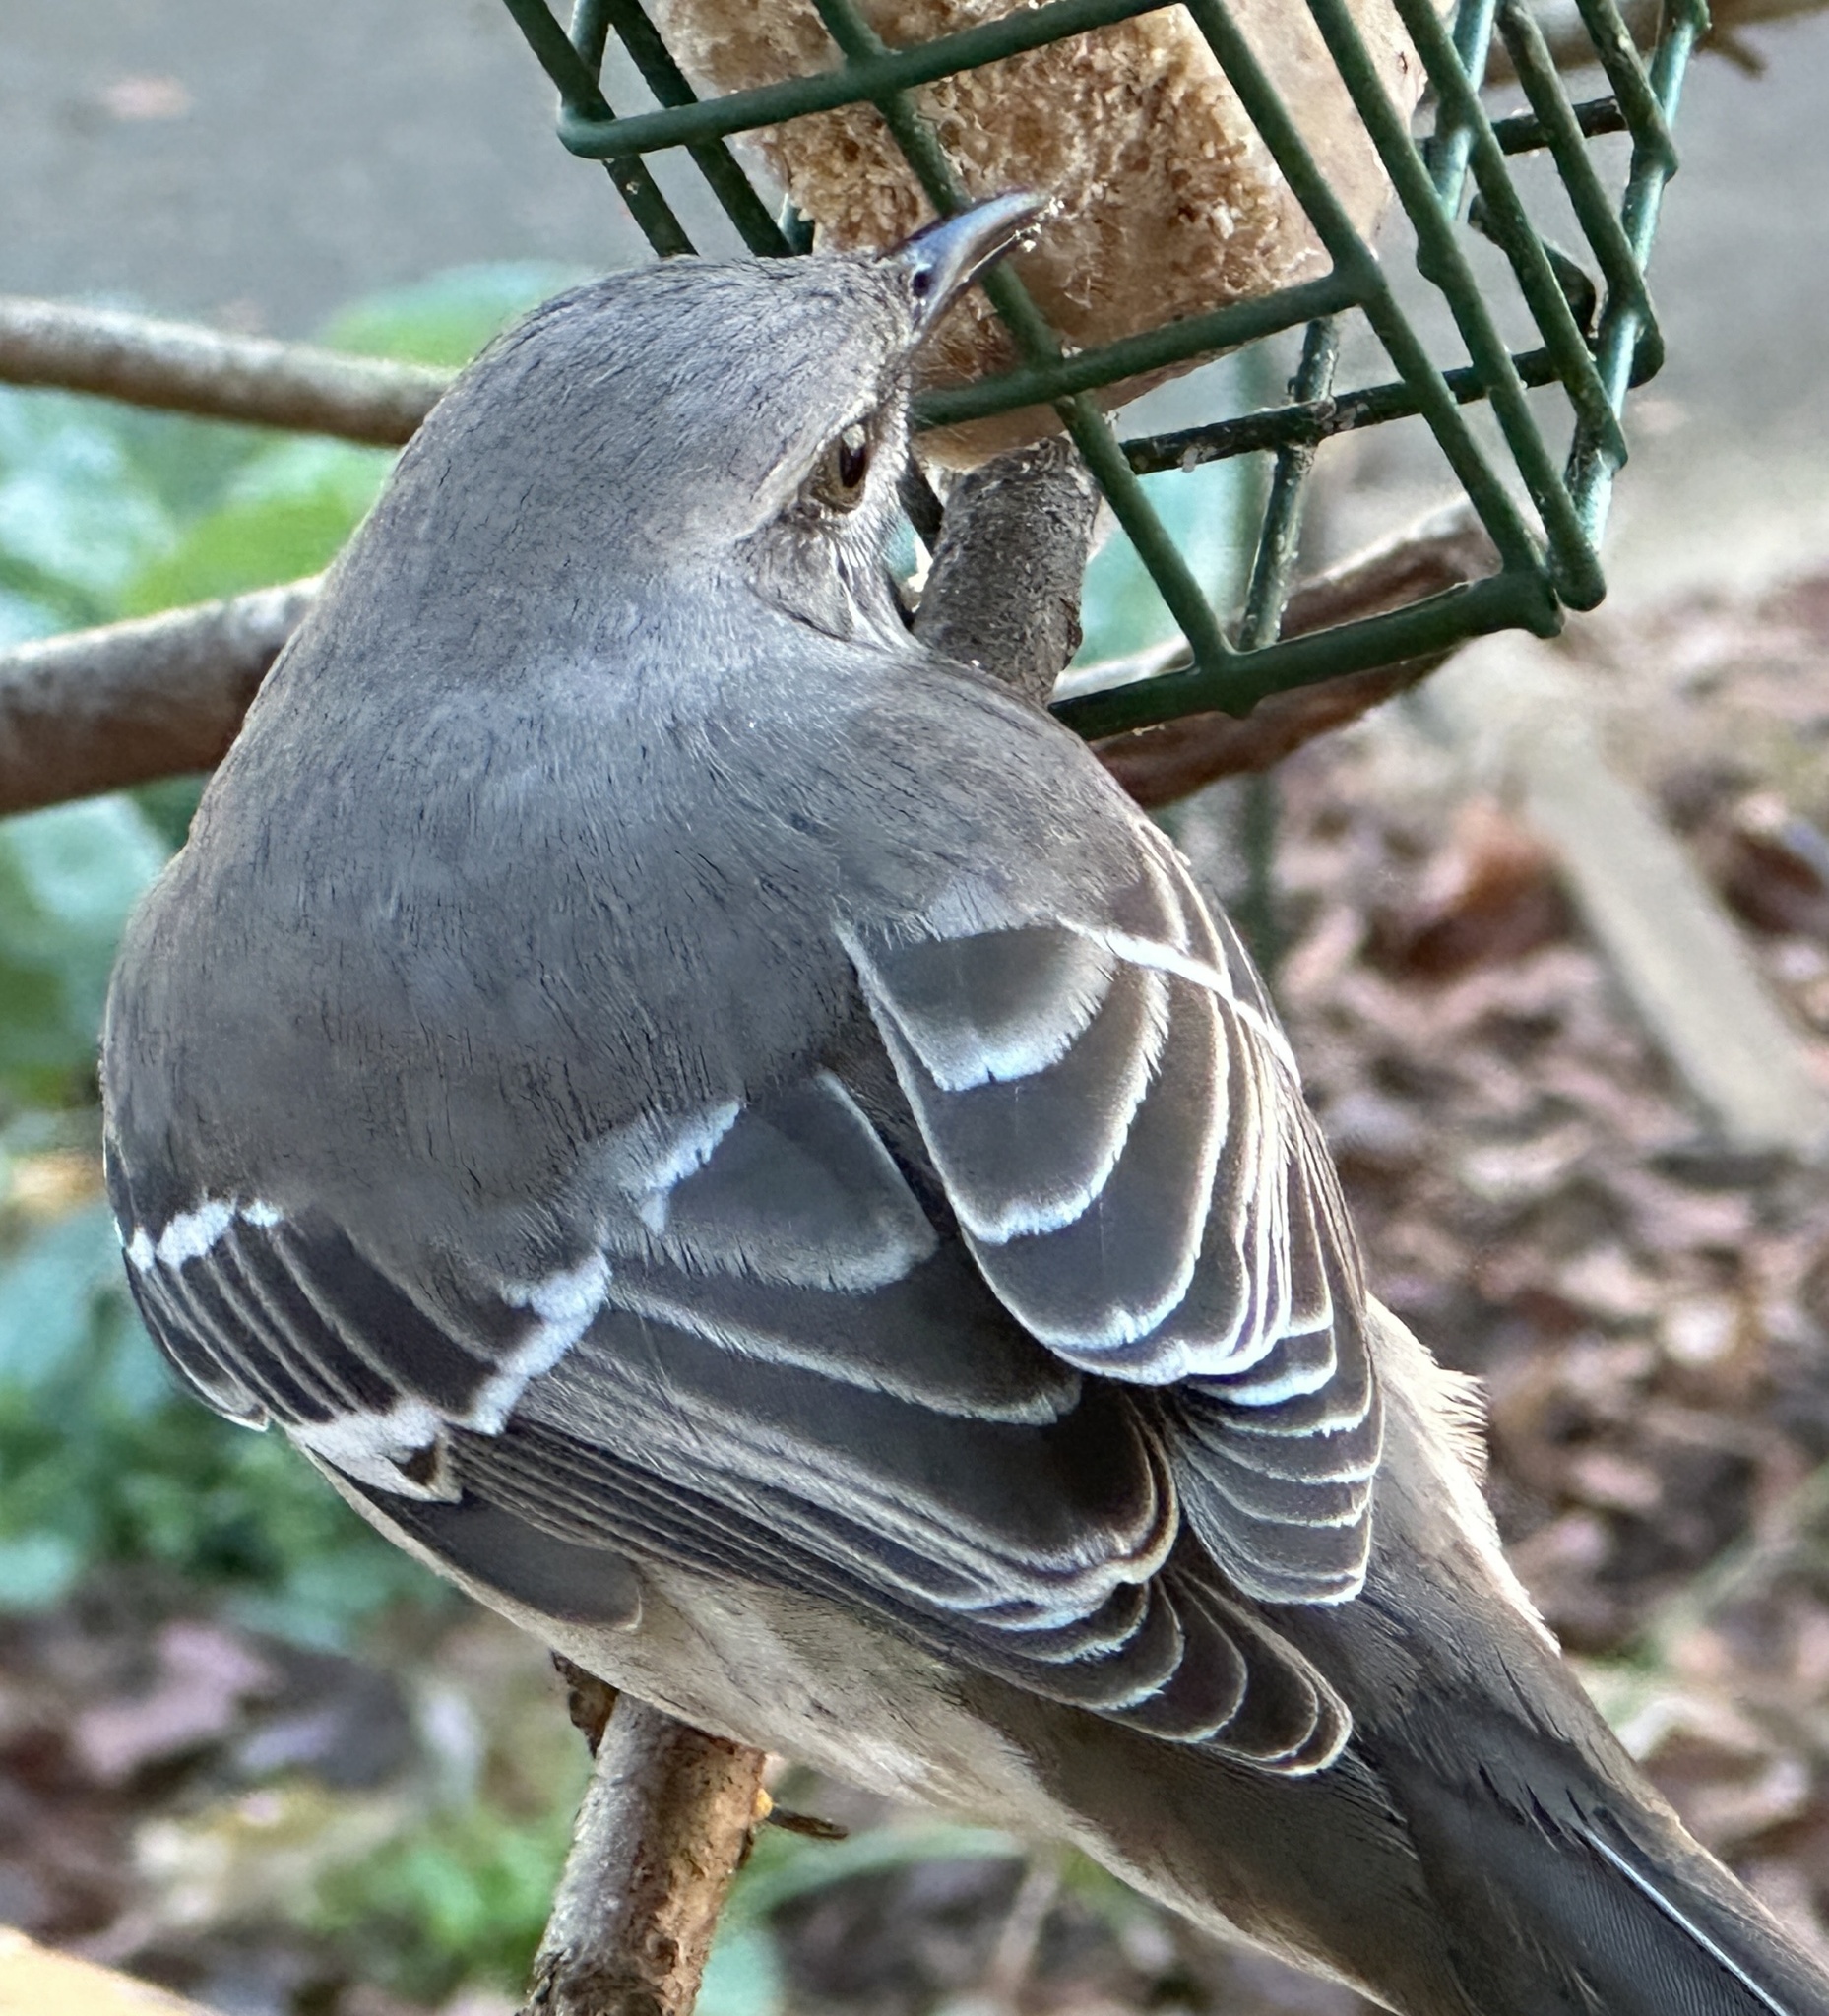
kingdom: Animalia
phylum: Chordata
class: Aves
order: Passeriformes
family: Mimidae
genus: Mimus
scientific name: Mimus polyglottos
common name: Northern mockingbird
